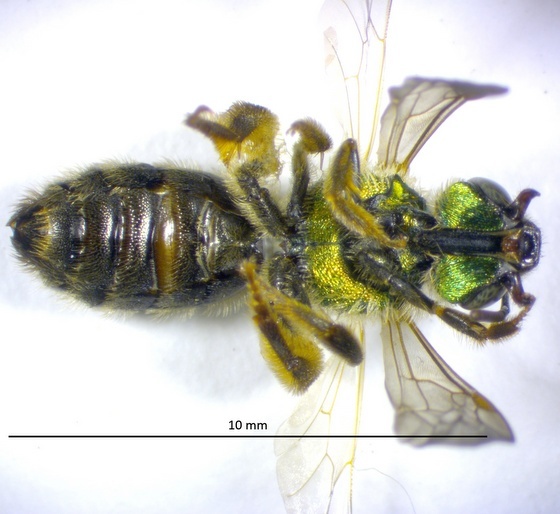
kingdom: Animalia
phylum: Arthropoda
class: Insecta
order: Hymenoptera
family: Halictidae
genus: Agapostemon
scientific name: Agapostemon virescens
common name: Bicolored striped sweat bee
